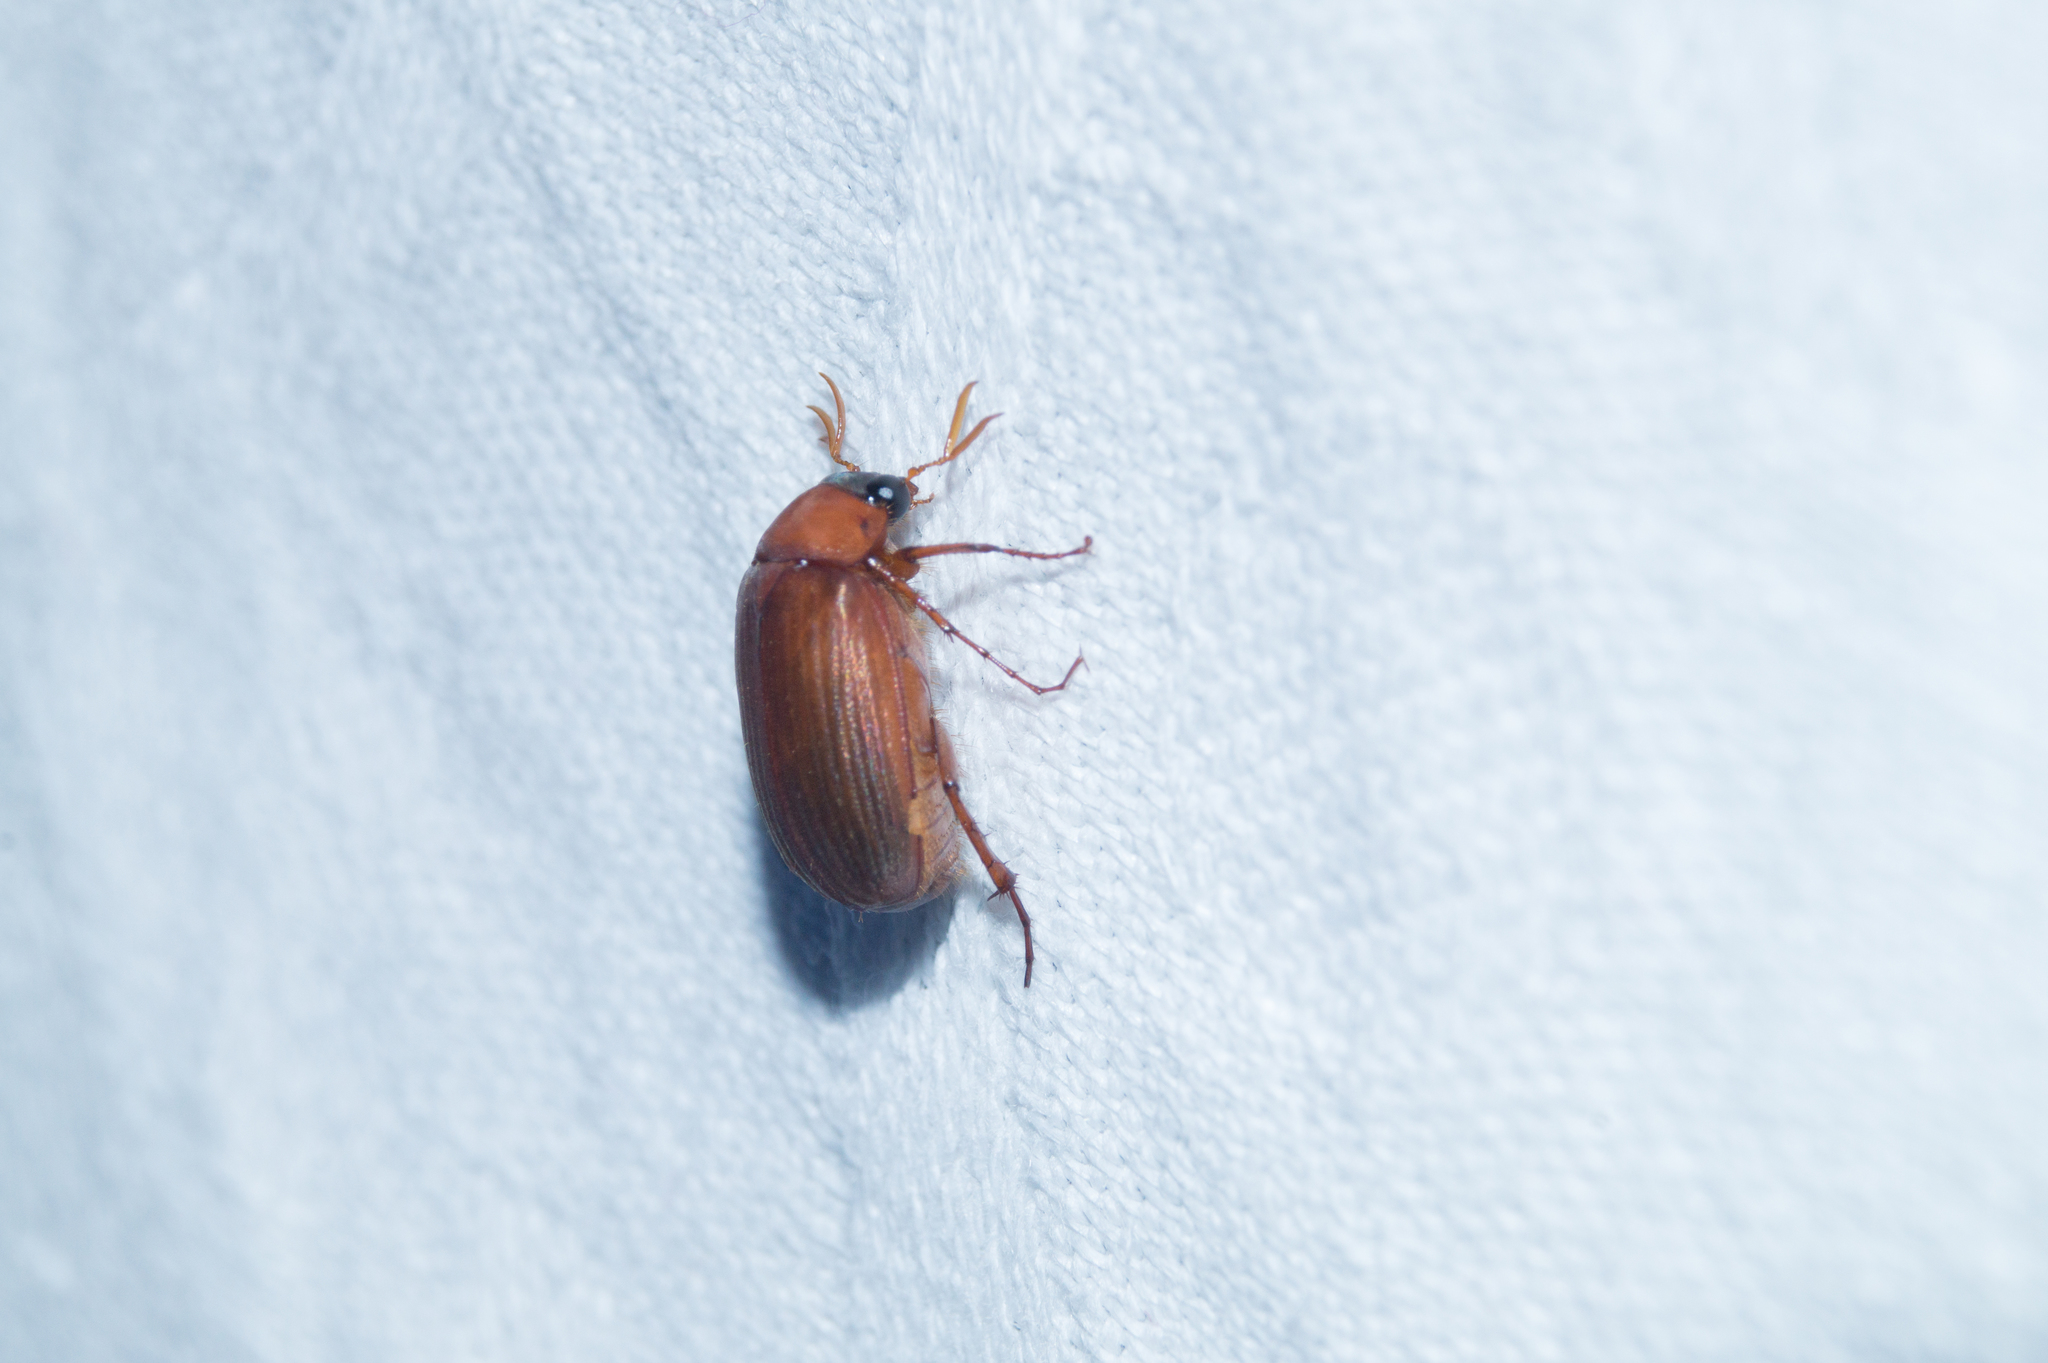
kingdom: Animalia
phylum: Arthropoda
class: Insecta
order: Coleoptera
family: Scarabaeidae
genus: Serica
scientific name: Serica brunnea
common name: Brown chafer
